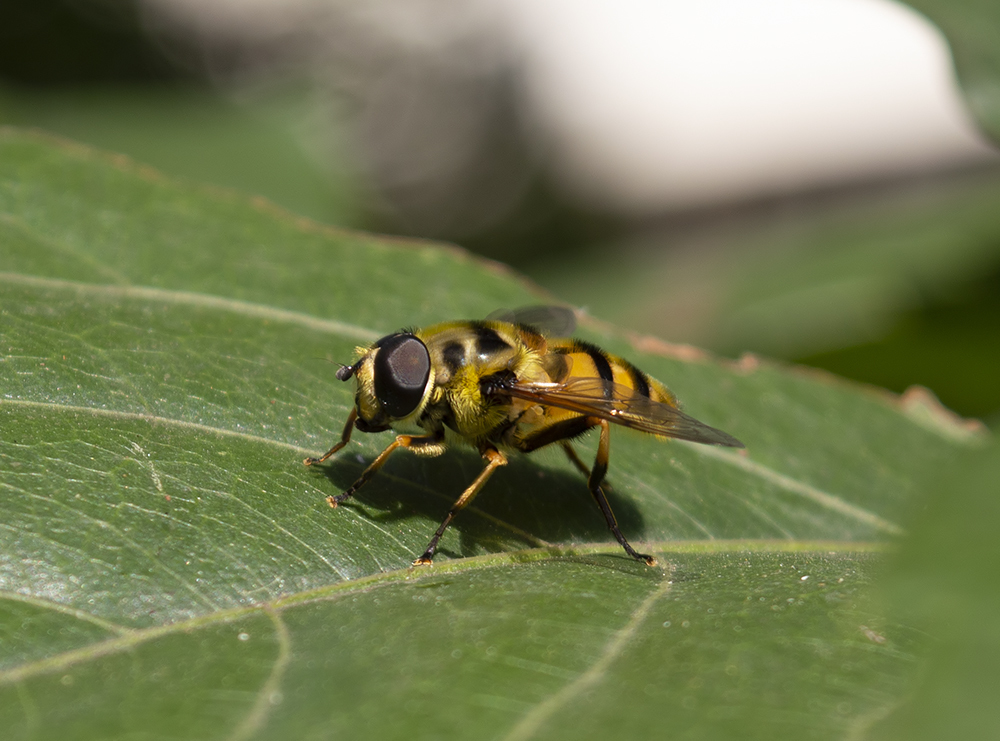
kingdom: Animalia
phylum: Arthropoda
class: Insecta
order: Diptera
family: Syrphidae
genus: Myathropa
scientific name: Myathropa florea
